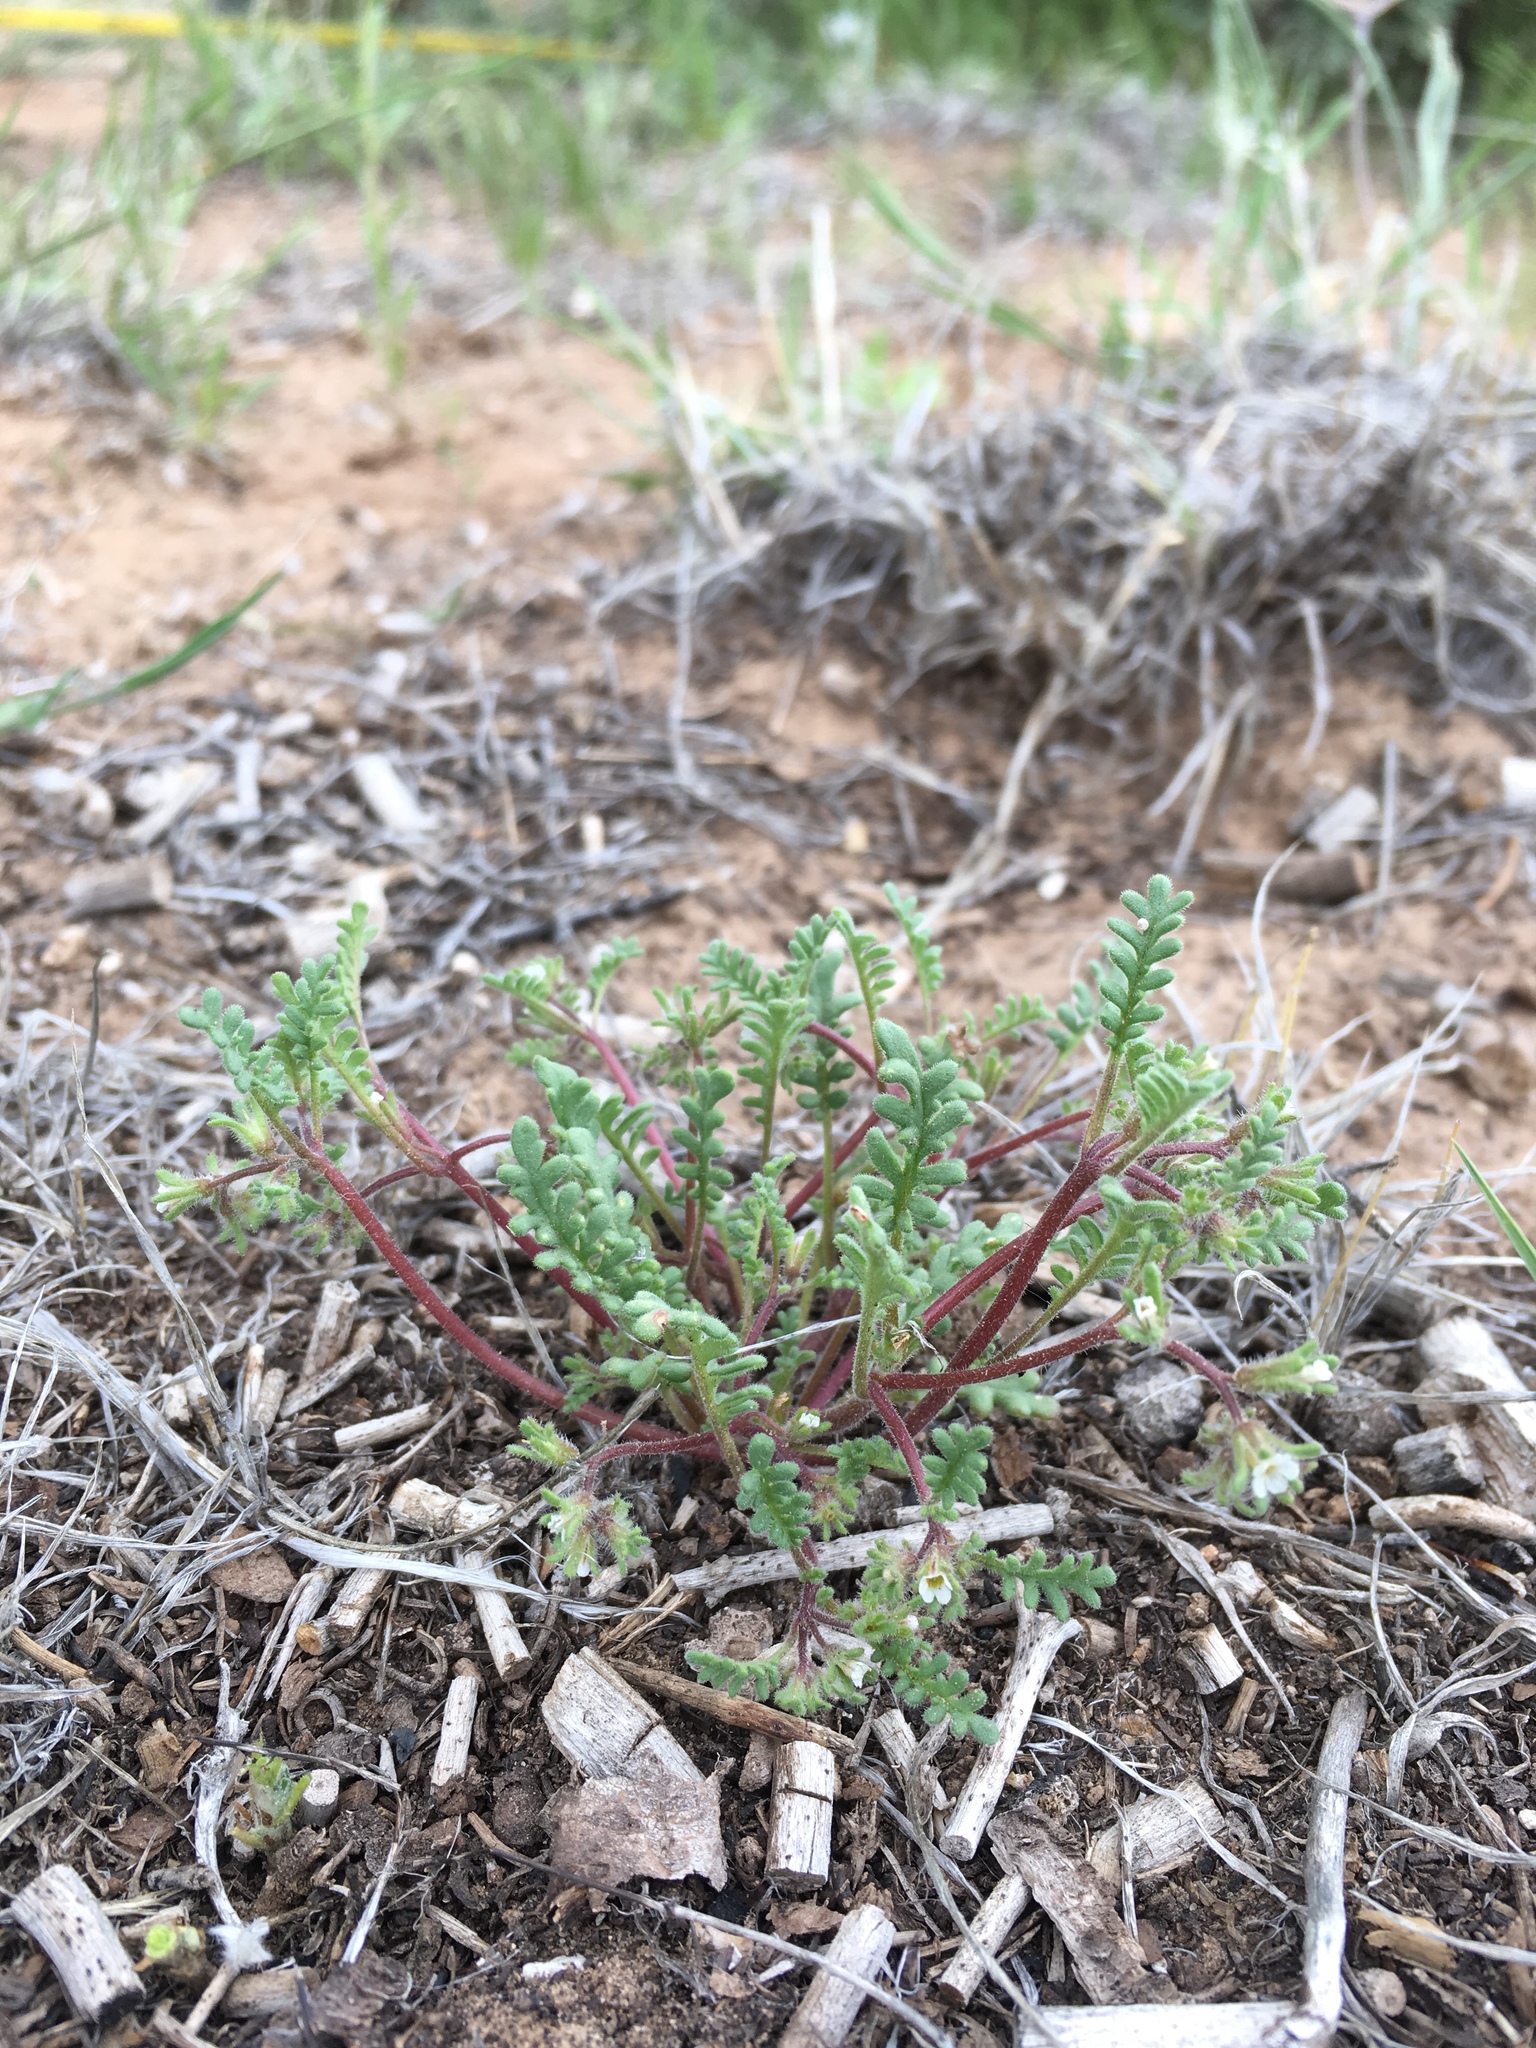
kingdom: Plantae
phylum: Tracheophyta
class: Magnoliopsida
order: Boraginales
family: Hydrophyllaceae
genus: Phacelia
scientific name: Phacelia ivesiana
